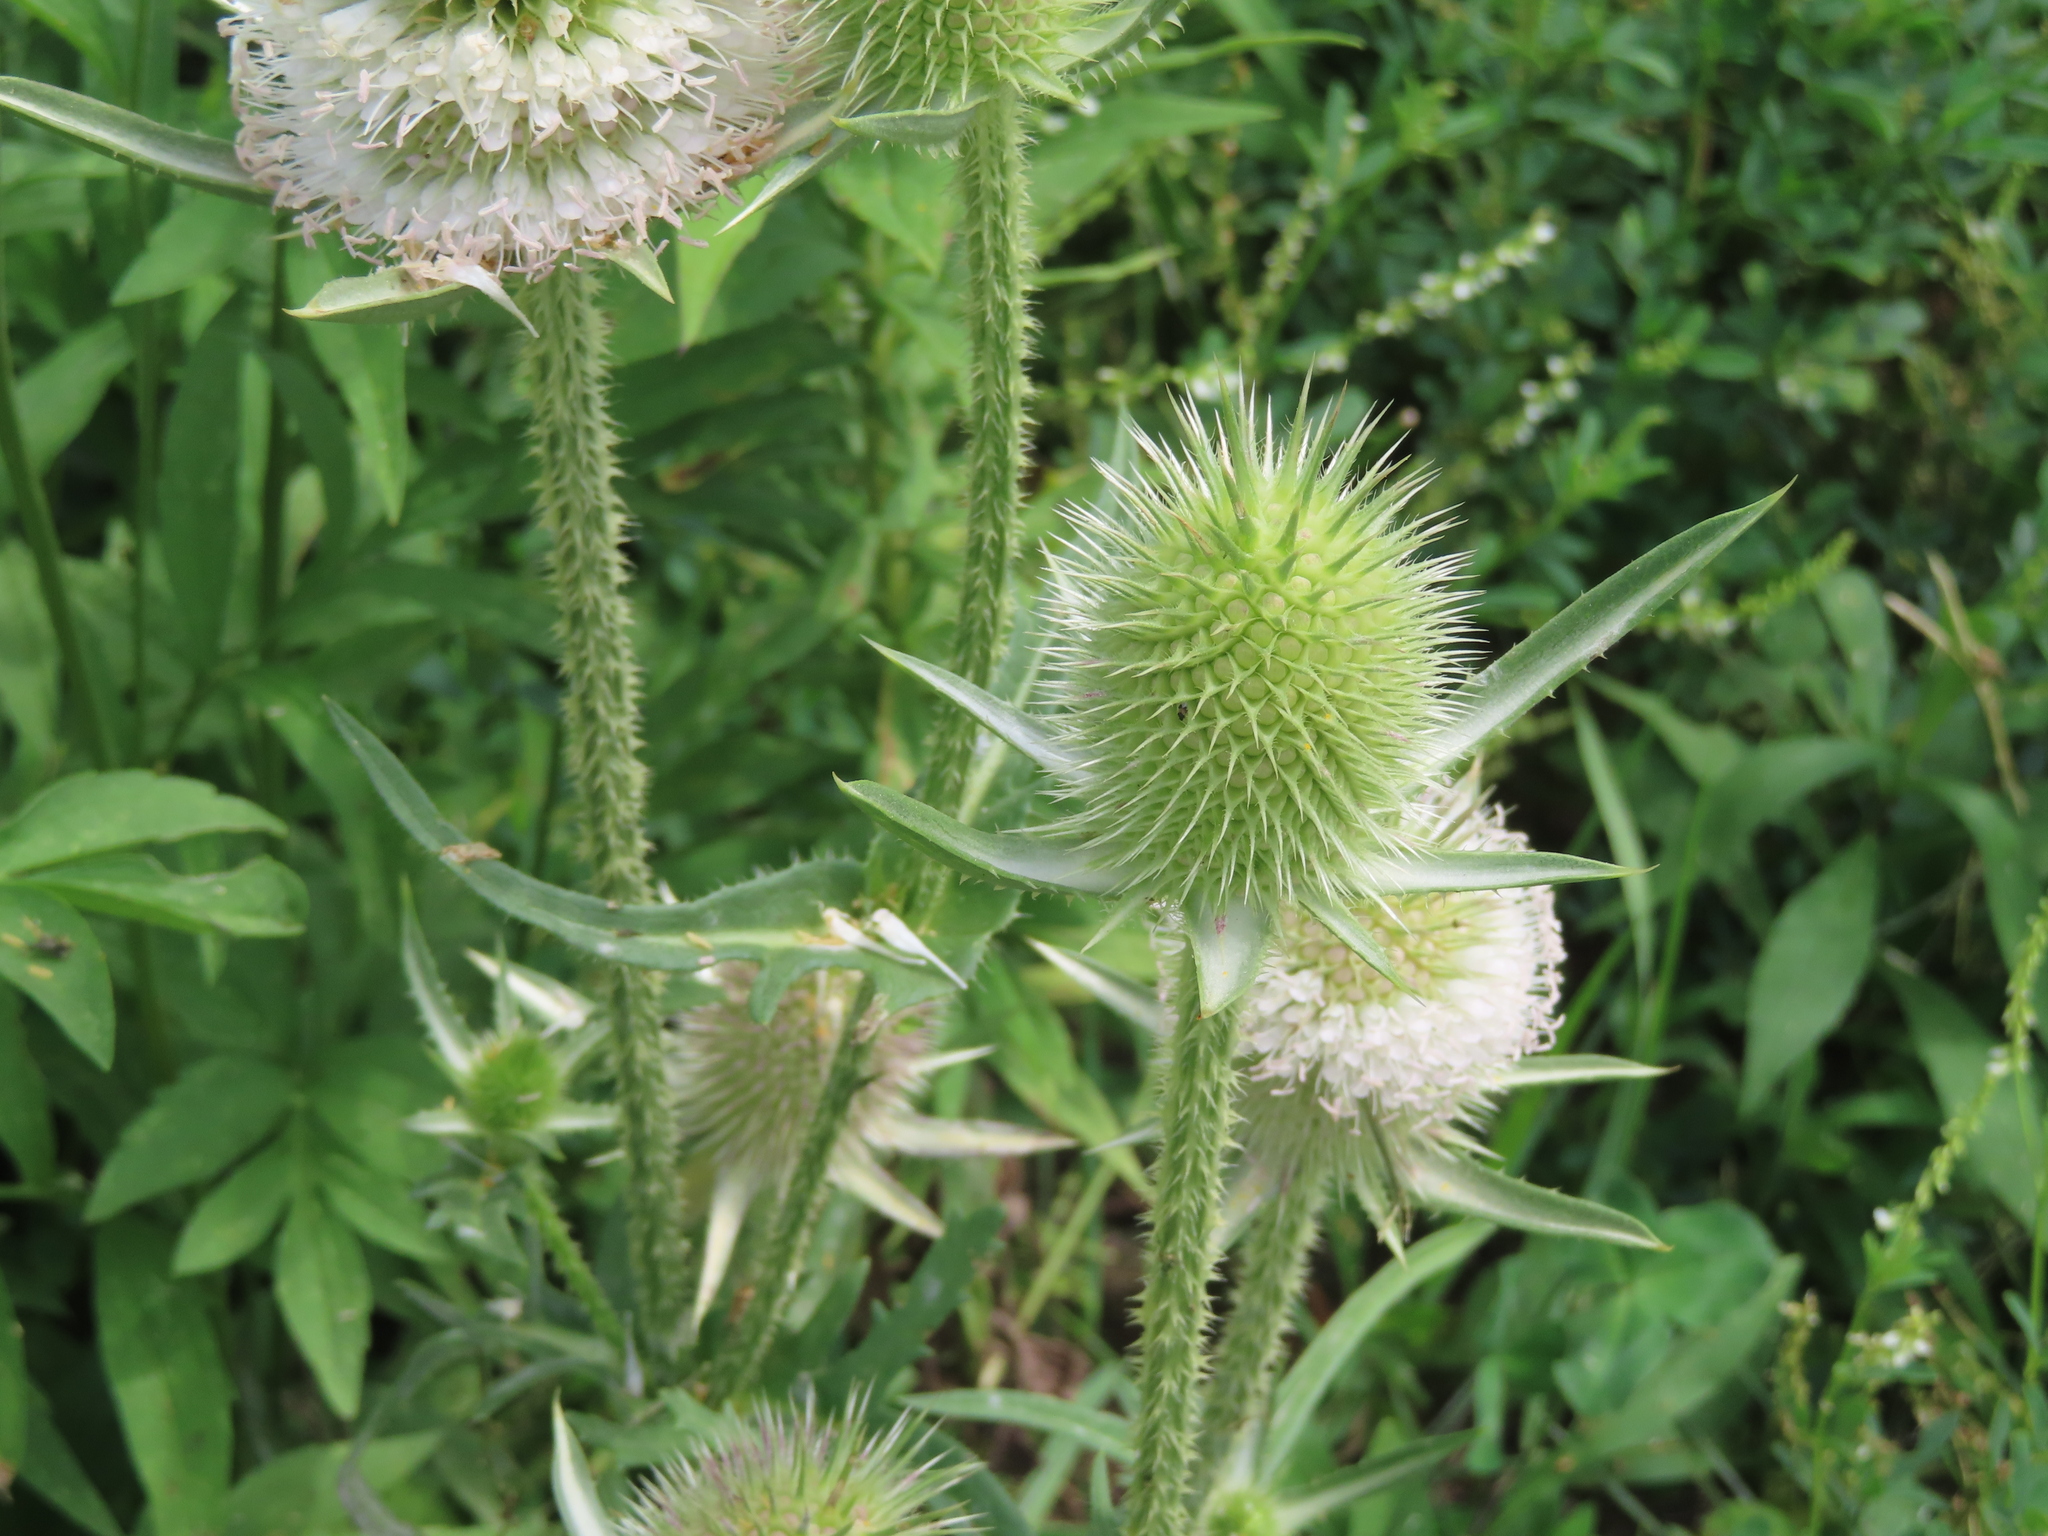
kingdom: Plantae
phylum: Tracheophyta
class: Magnoliopsida
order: Dipsacales
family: Caprifoliaceae
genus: Dipsacus
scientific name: Dipsacus laciniatus
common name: Cut-leaved teasel
